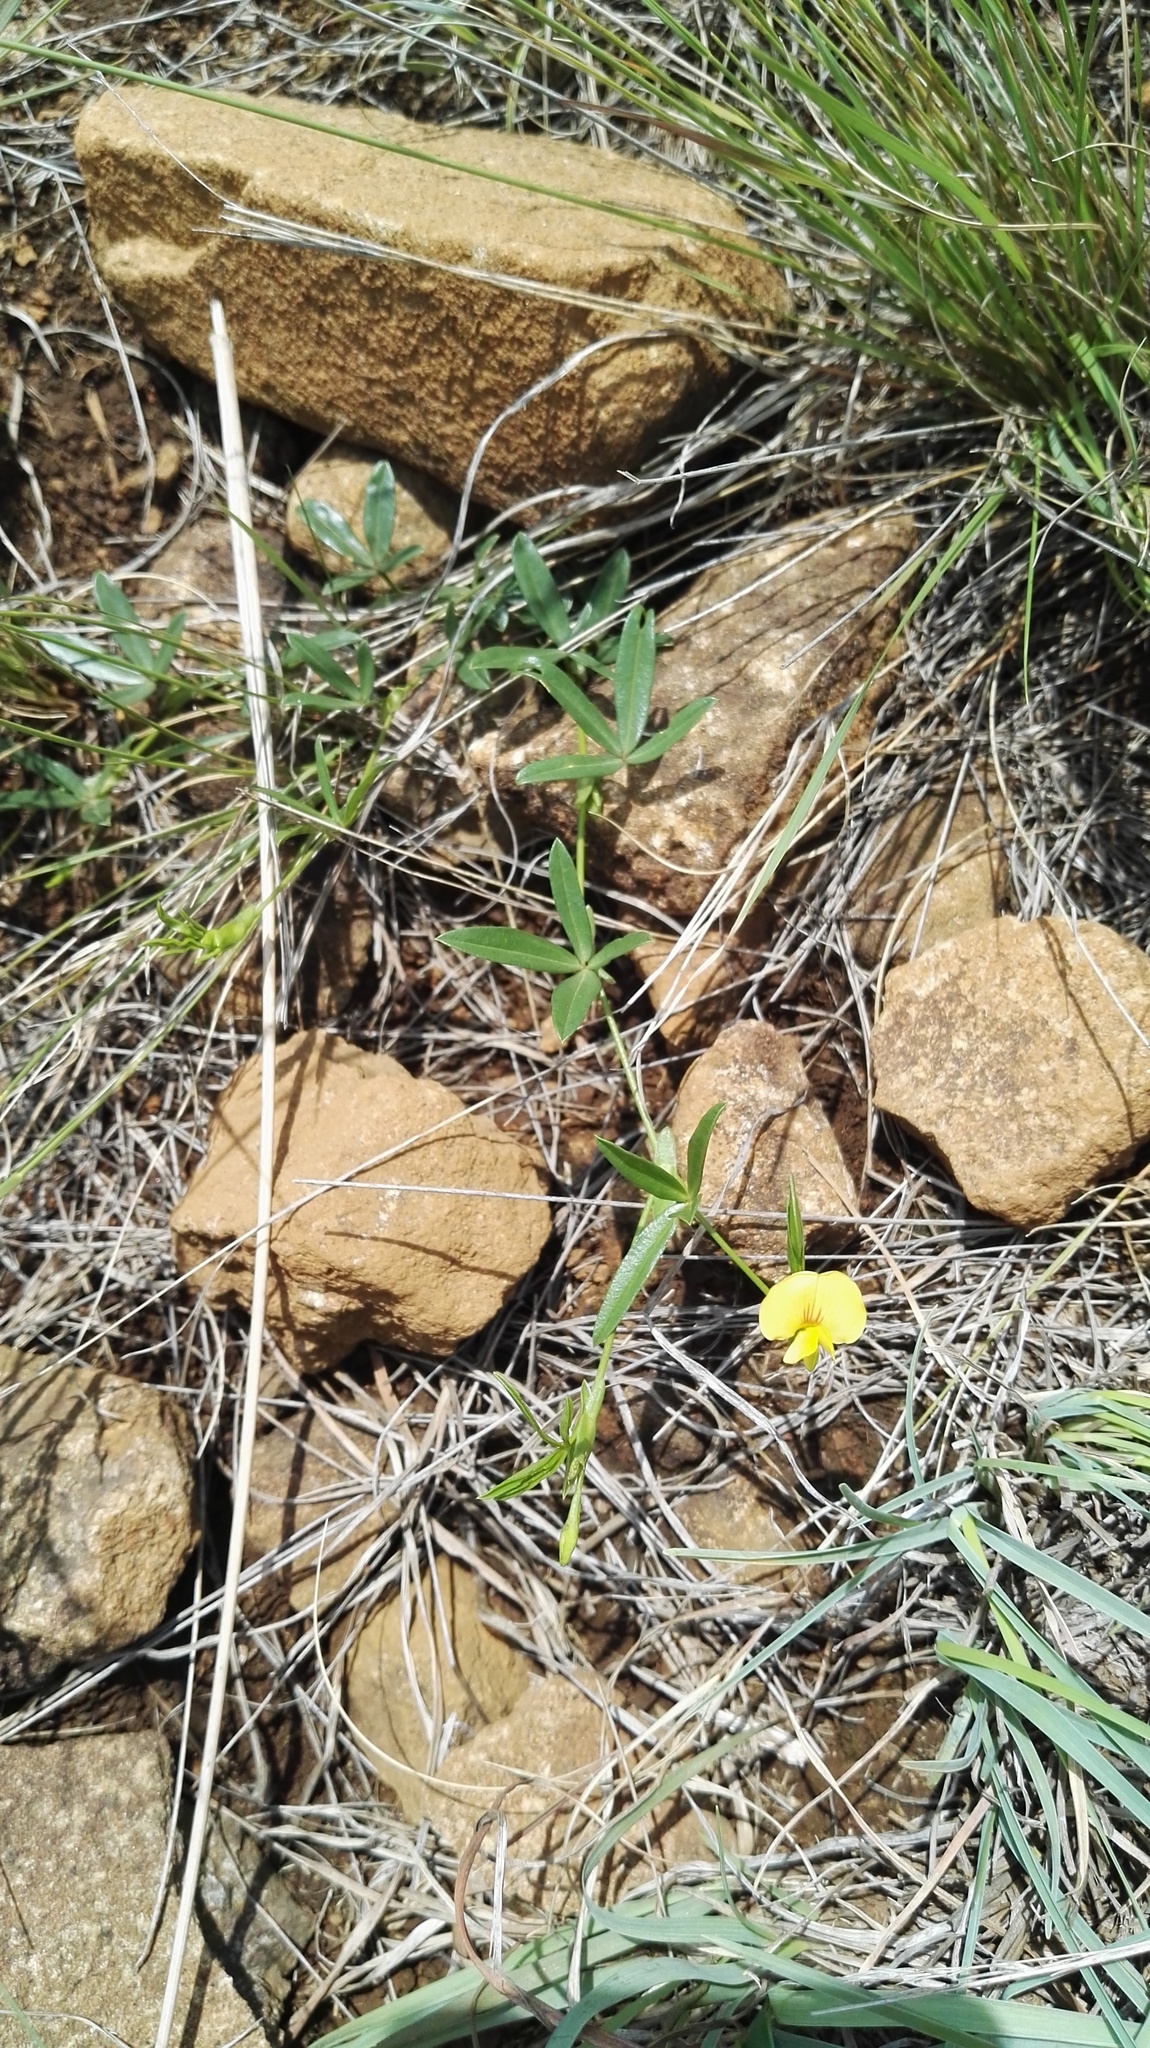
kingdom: Plantae
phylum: Tracheophyta
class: Magnoliopsida
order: Fabales
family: Fabaceae
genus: Zornia
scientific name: Zornia capensis
